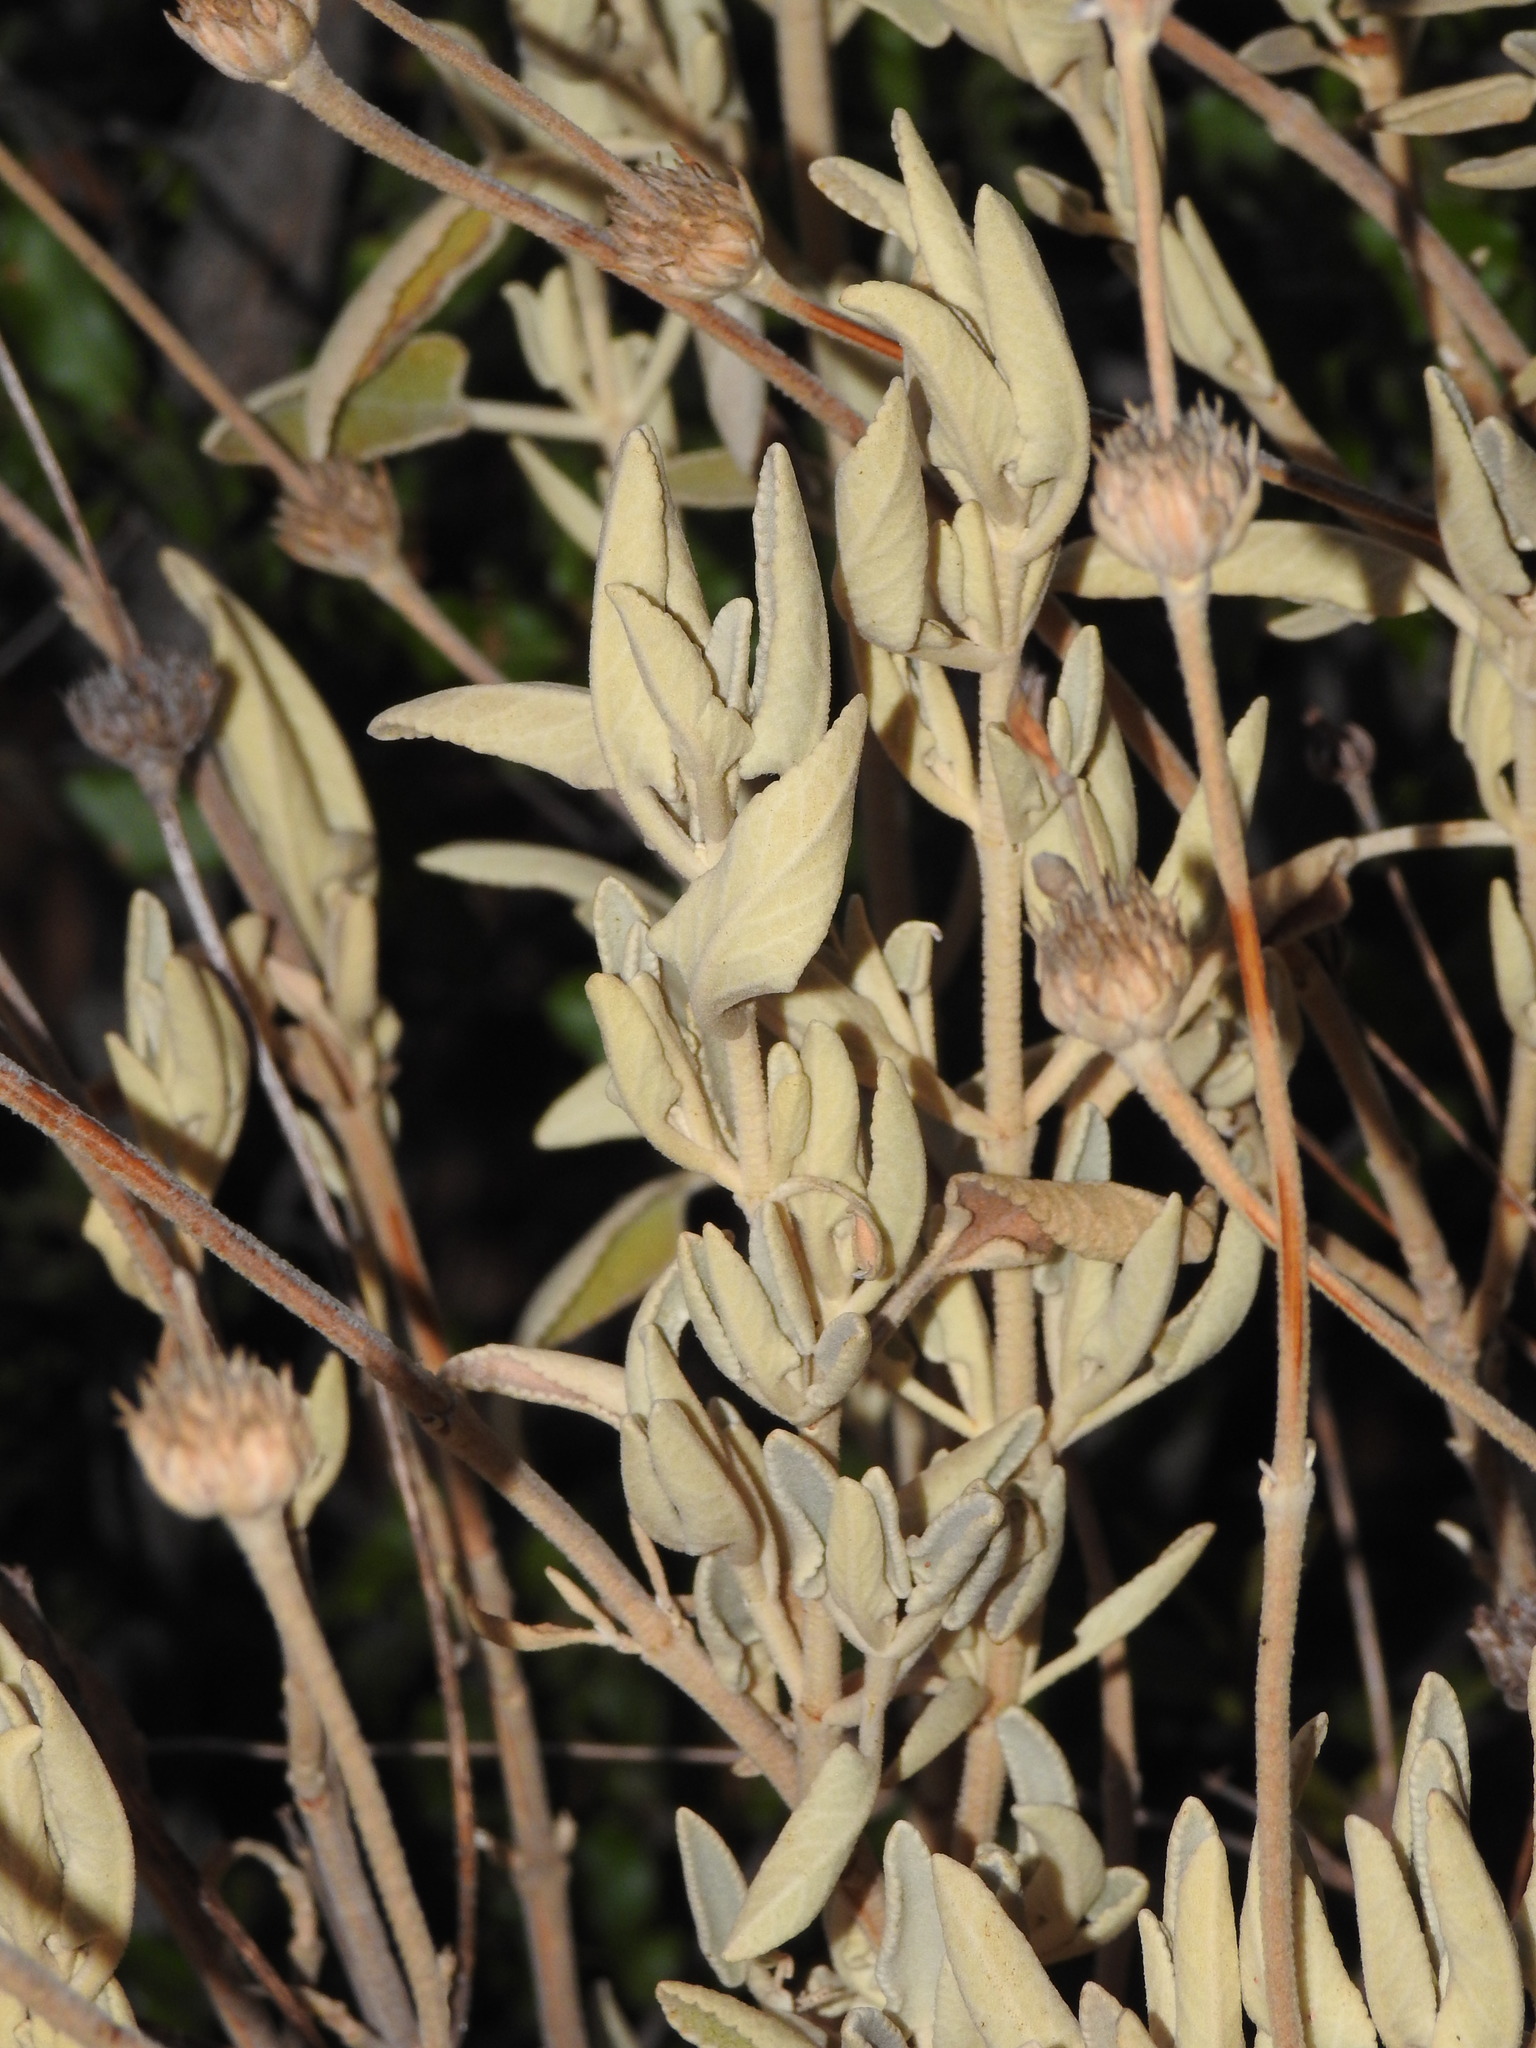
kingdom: Plantae
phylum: Tracheophyta
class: Magnoliopsida
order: Lamiales
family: Lamiaceae
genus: Phlomis
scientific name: Phlomis purpurea
